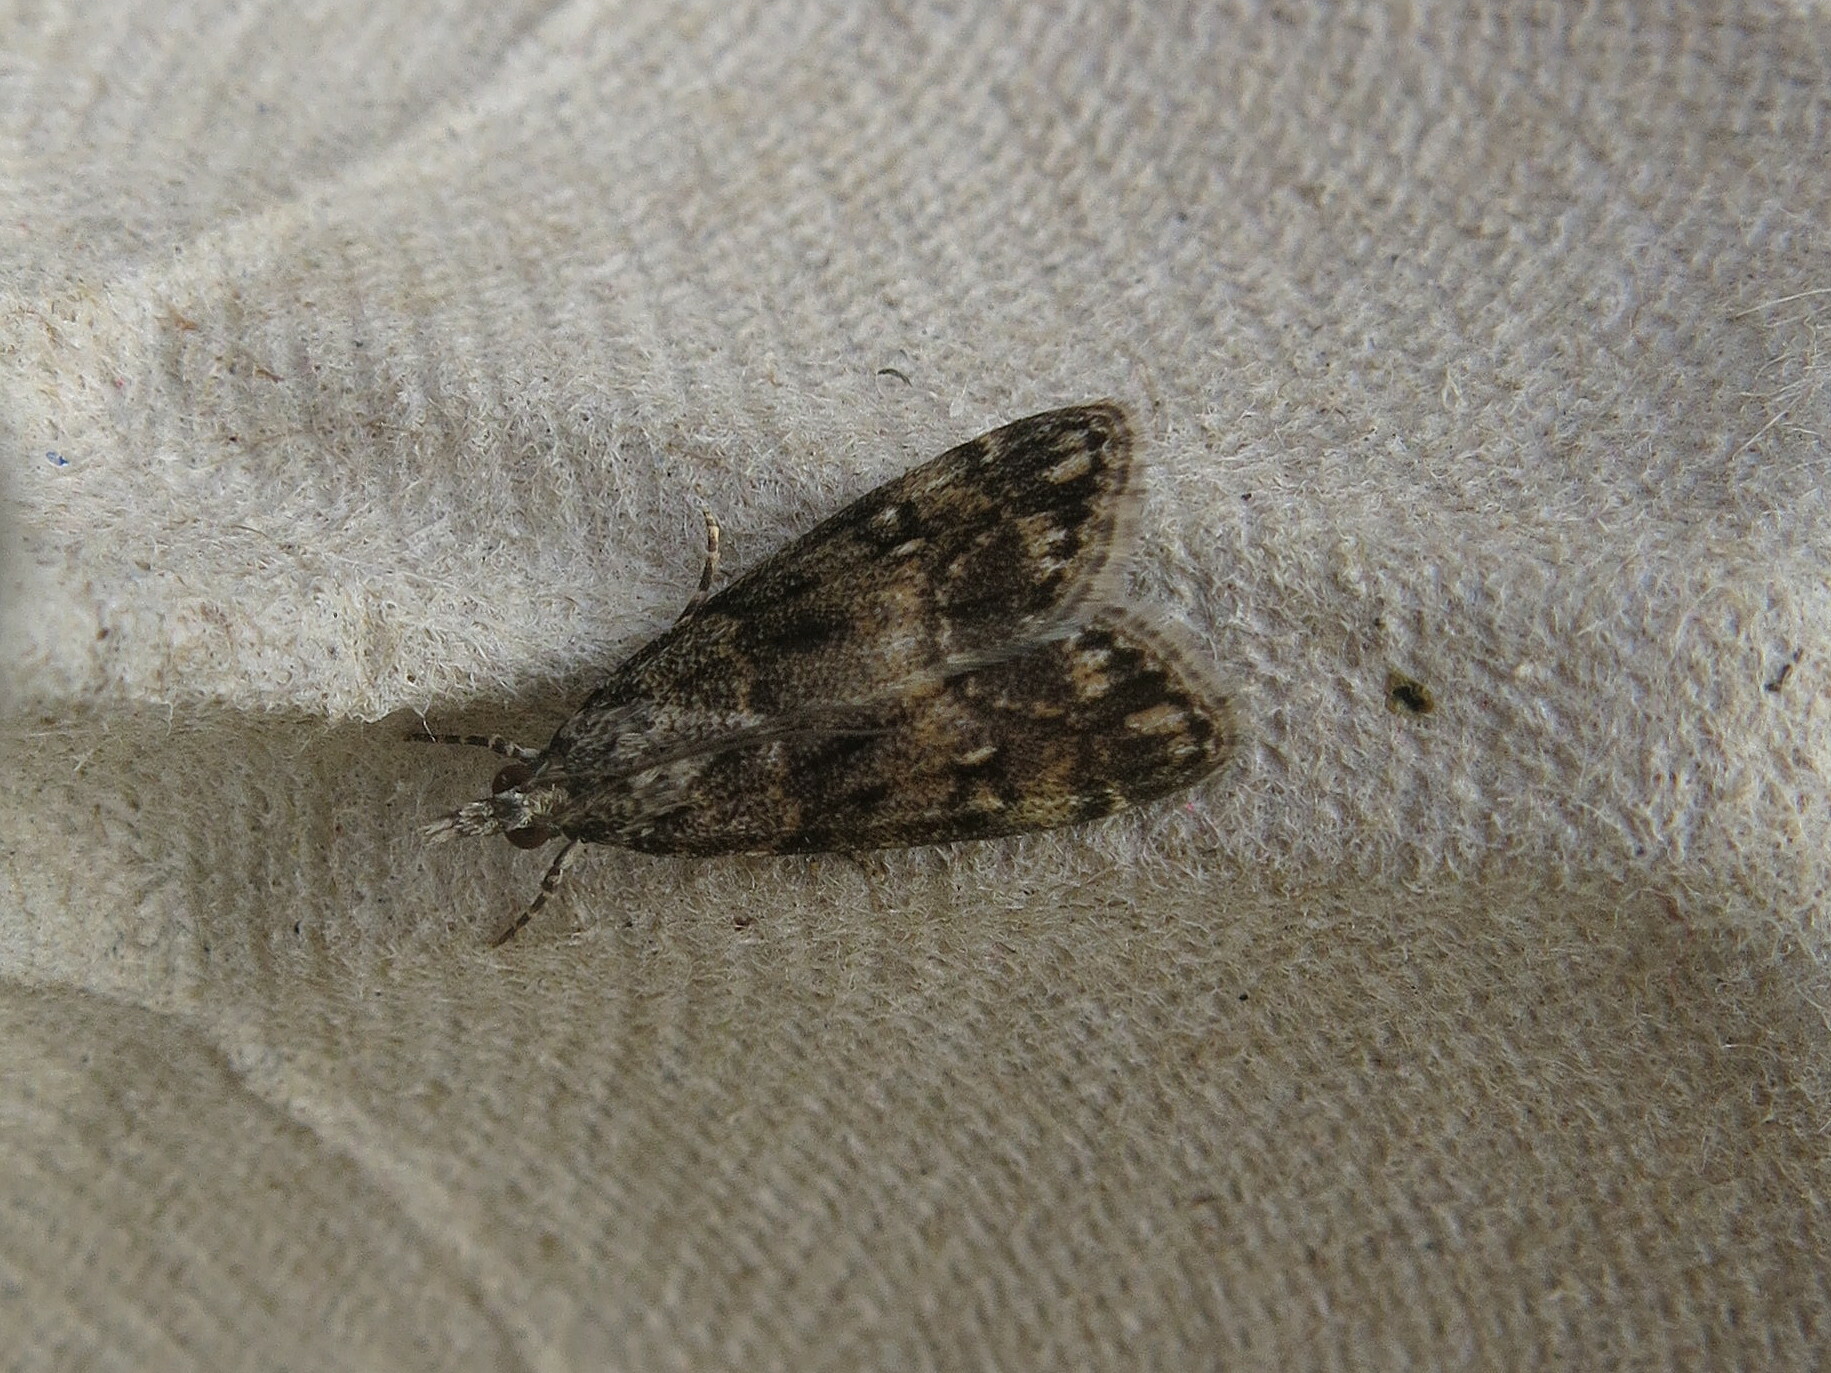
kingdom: Animalia
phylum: Arthropoda
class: Insecta
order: Lepidoptera
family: Crambidae
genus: Eudonia
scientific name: Eudonia lacustrata
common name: Little grey
